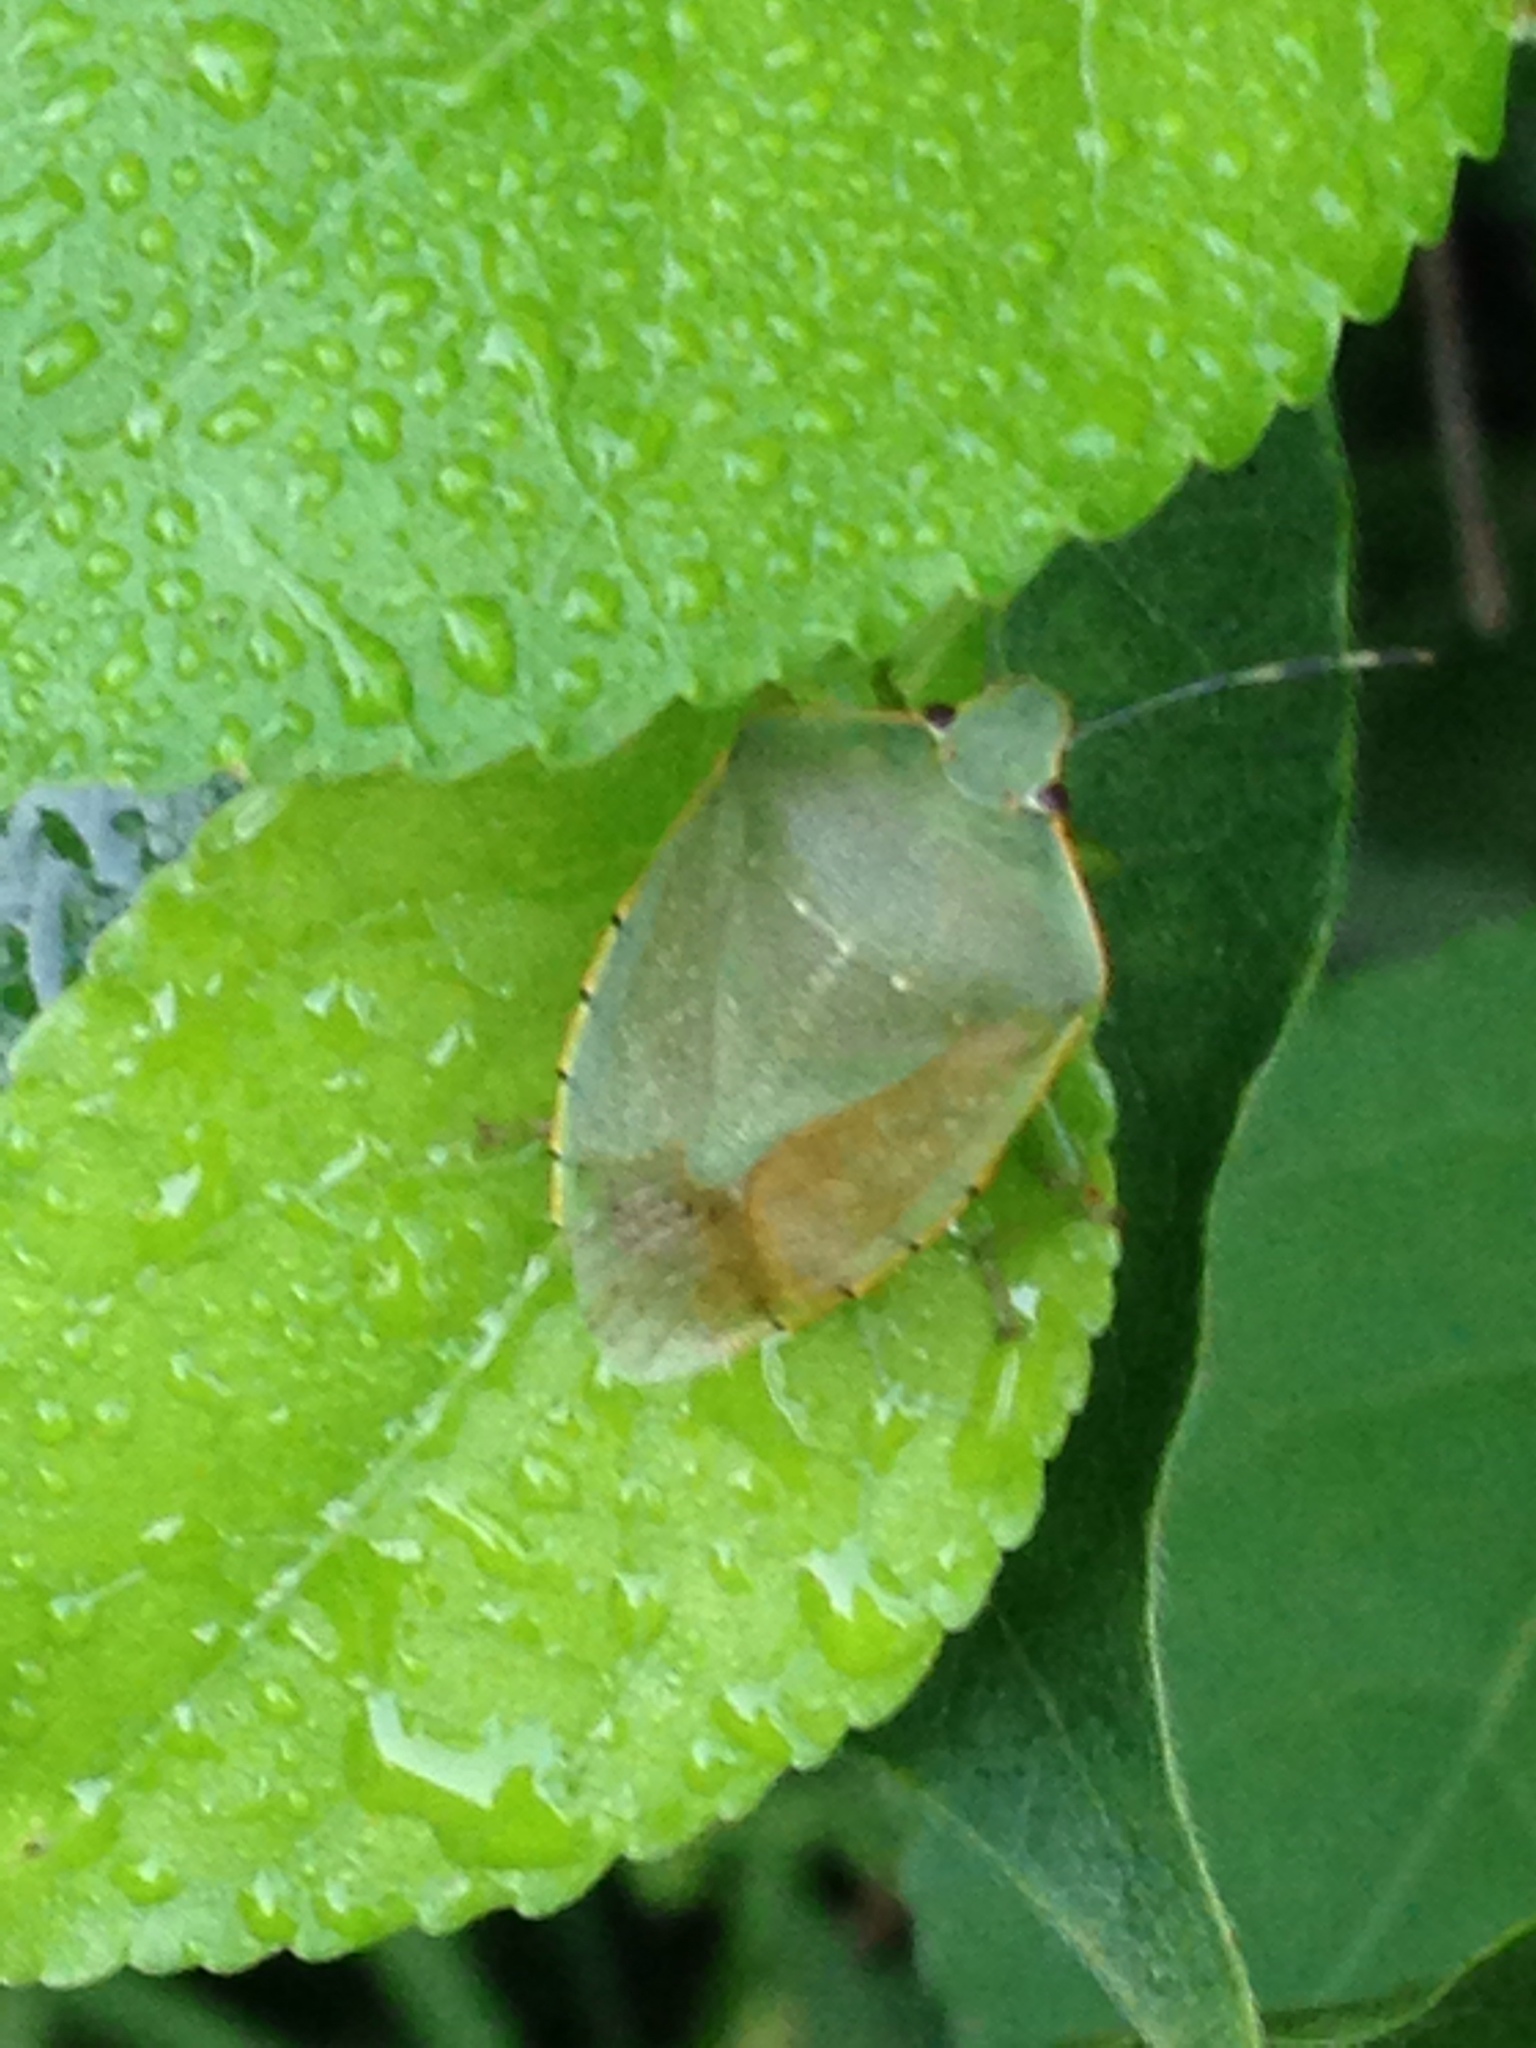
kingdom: Animalia
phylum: Arthropoda
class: Insecta
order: Hemiptera
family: Pentatomidae
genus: Chinavia
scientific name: Chinavia hilaris
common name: Green stink bug
